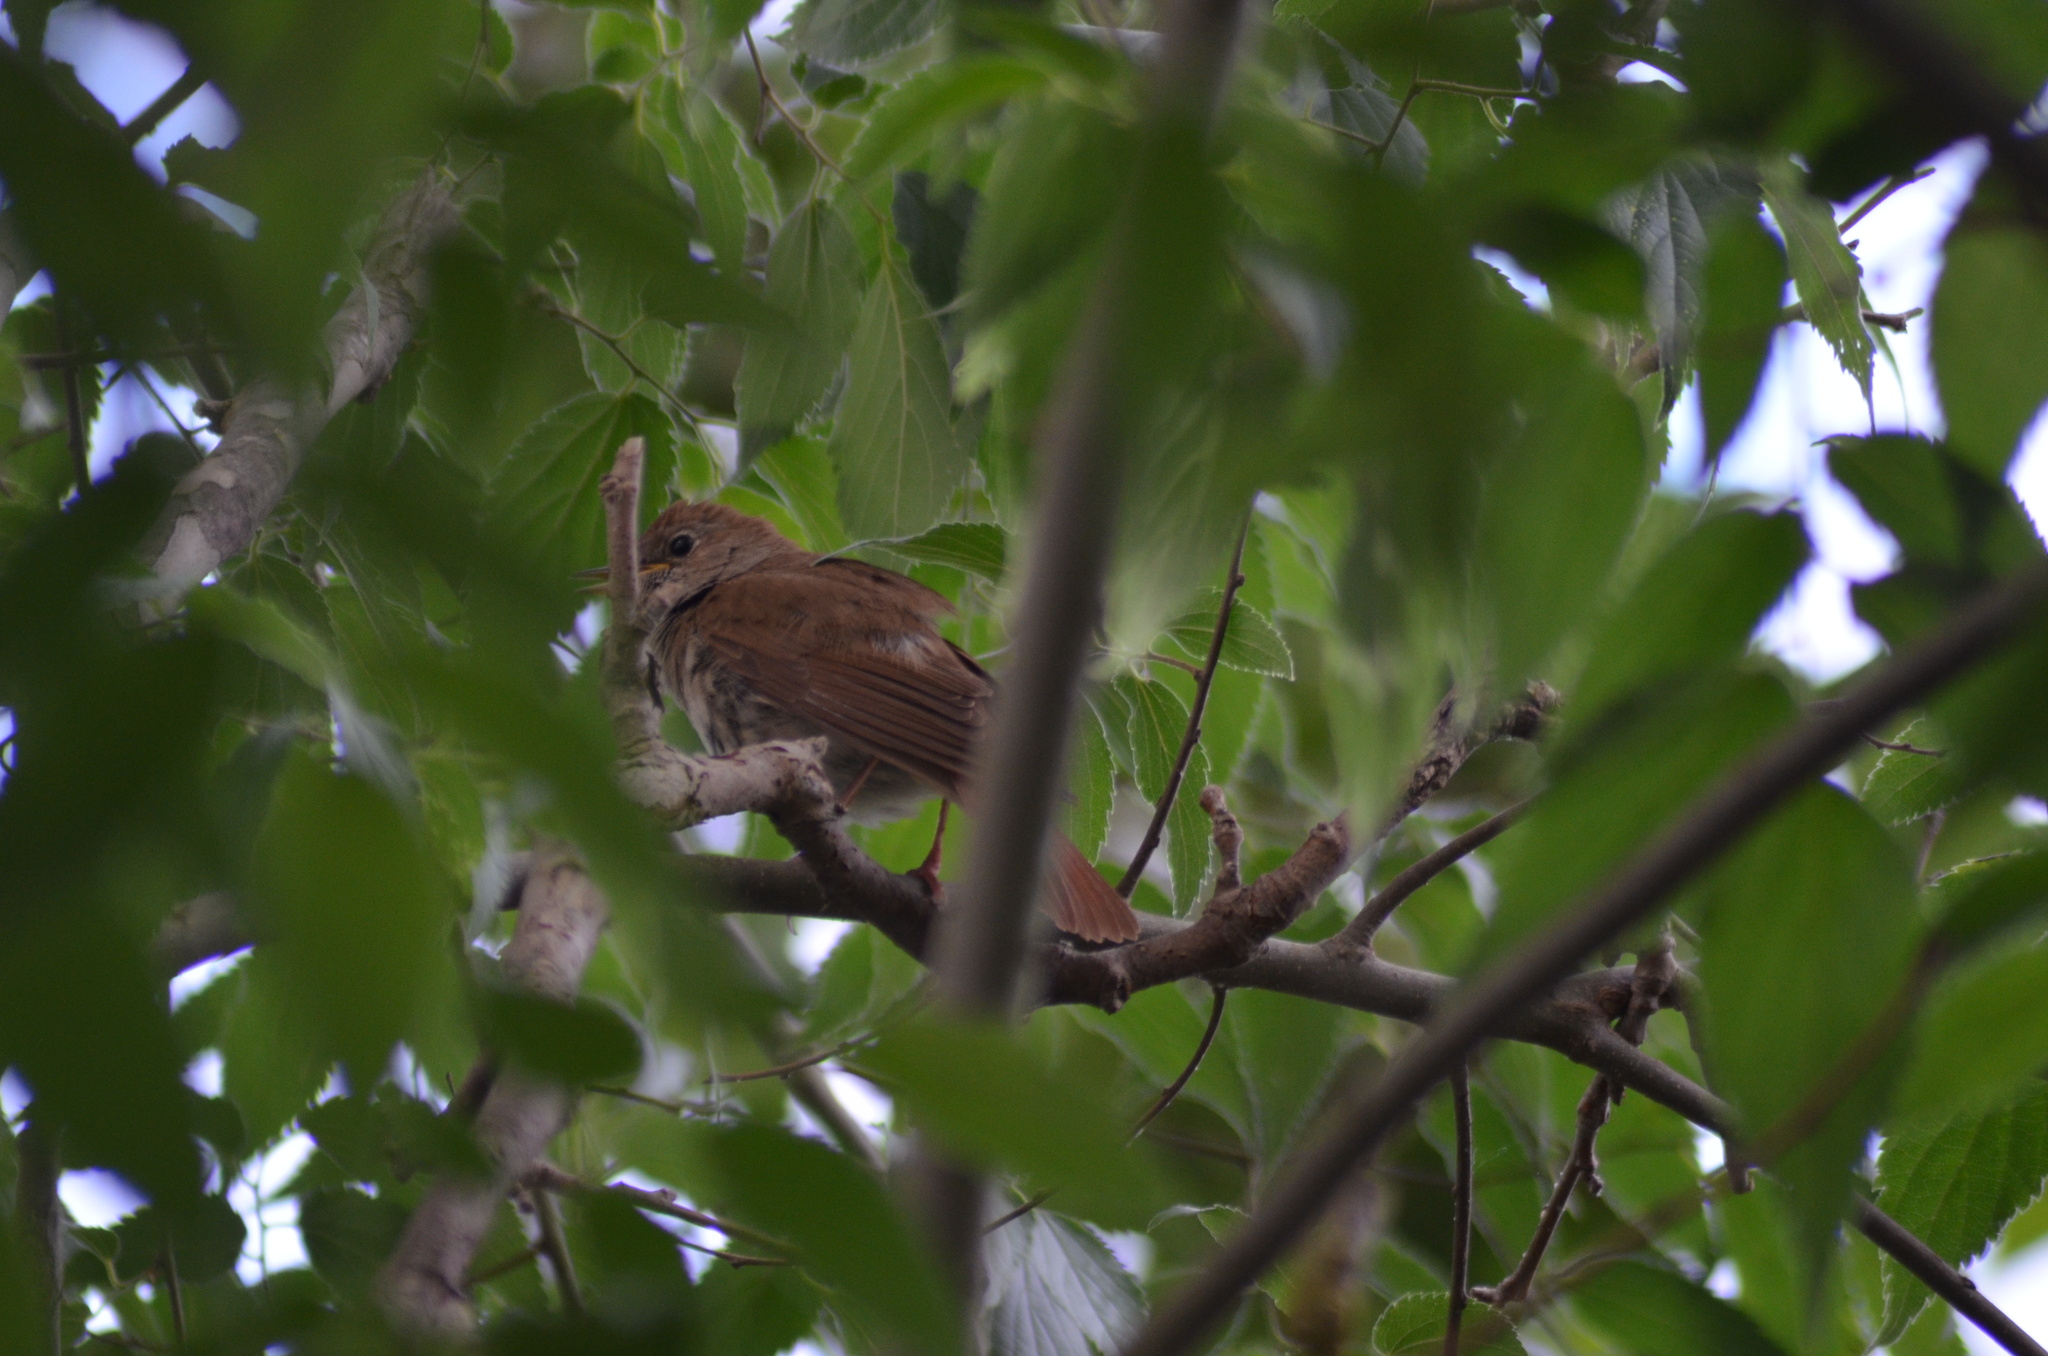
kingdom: Animalia
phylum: Chordata
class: Aves
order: Passeriformes
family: Muscicapidae
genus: Luscinia
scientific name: Luscinia megarhynchos
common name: Common nightingale
